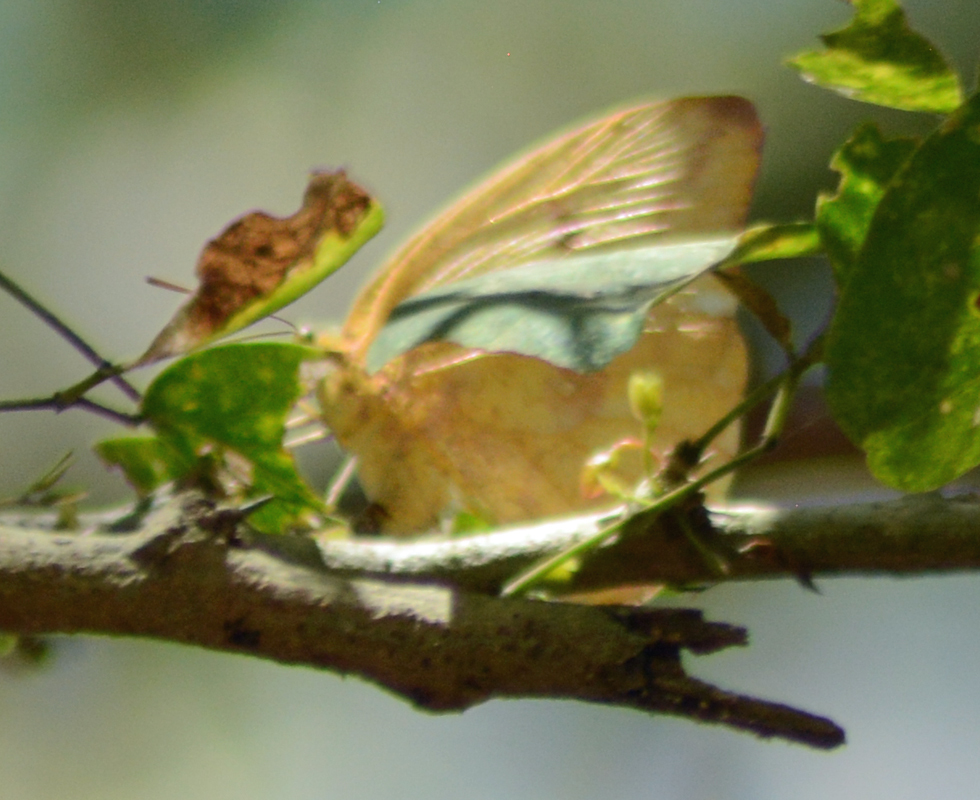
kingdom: Animalia
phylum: Arthropoda
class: Insecta
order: Lepidoptera
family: Pieridae
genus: Phoebis
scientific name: Phoebis agarithe
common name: Large orange sulphur
